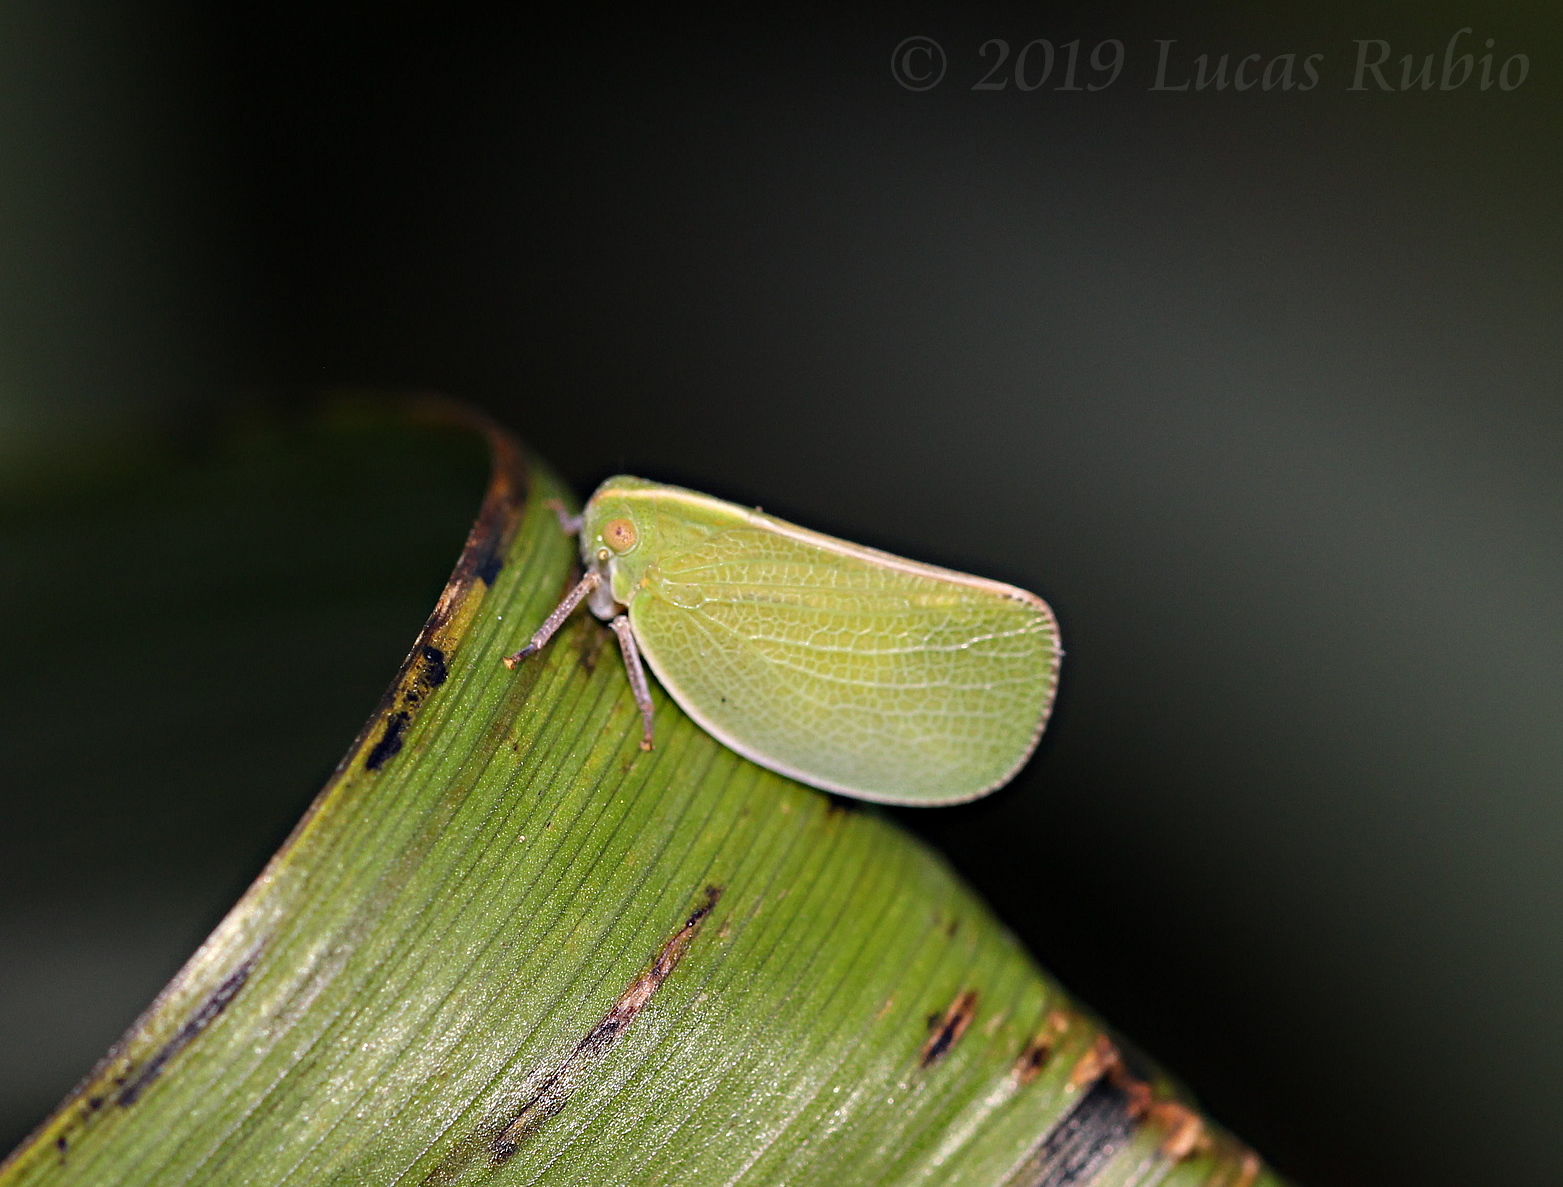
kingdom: Animalia
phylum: Arthropoda
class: Insecta
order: Hemiptera
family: Acanaloniidae
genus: Acanalonia
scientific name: Acanalonia chloris
